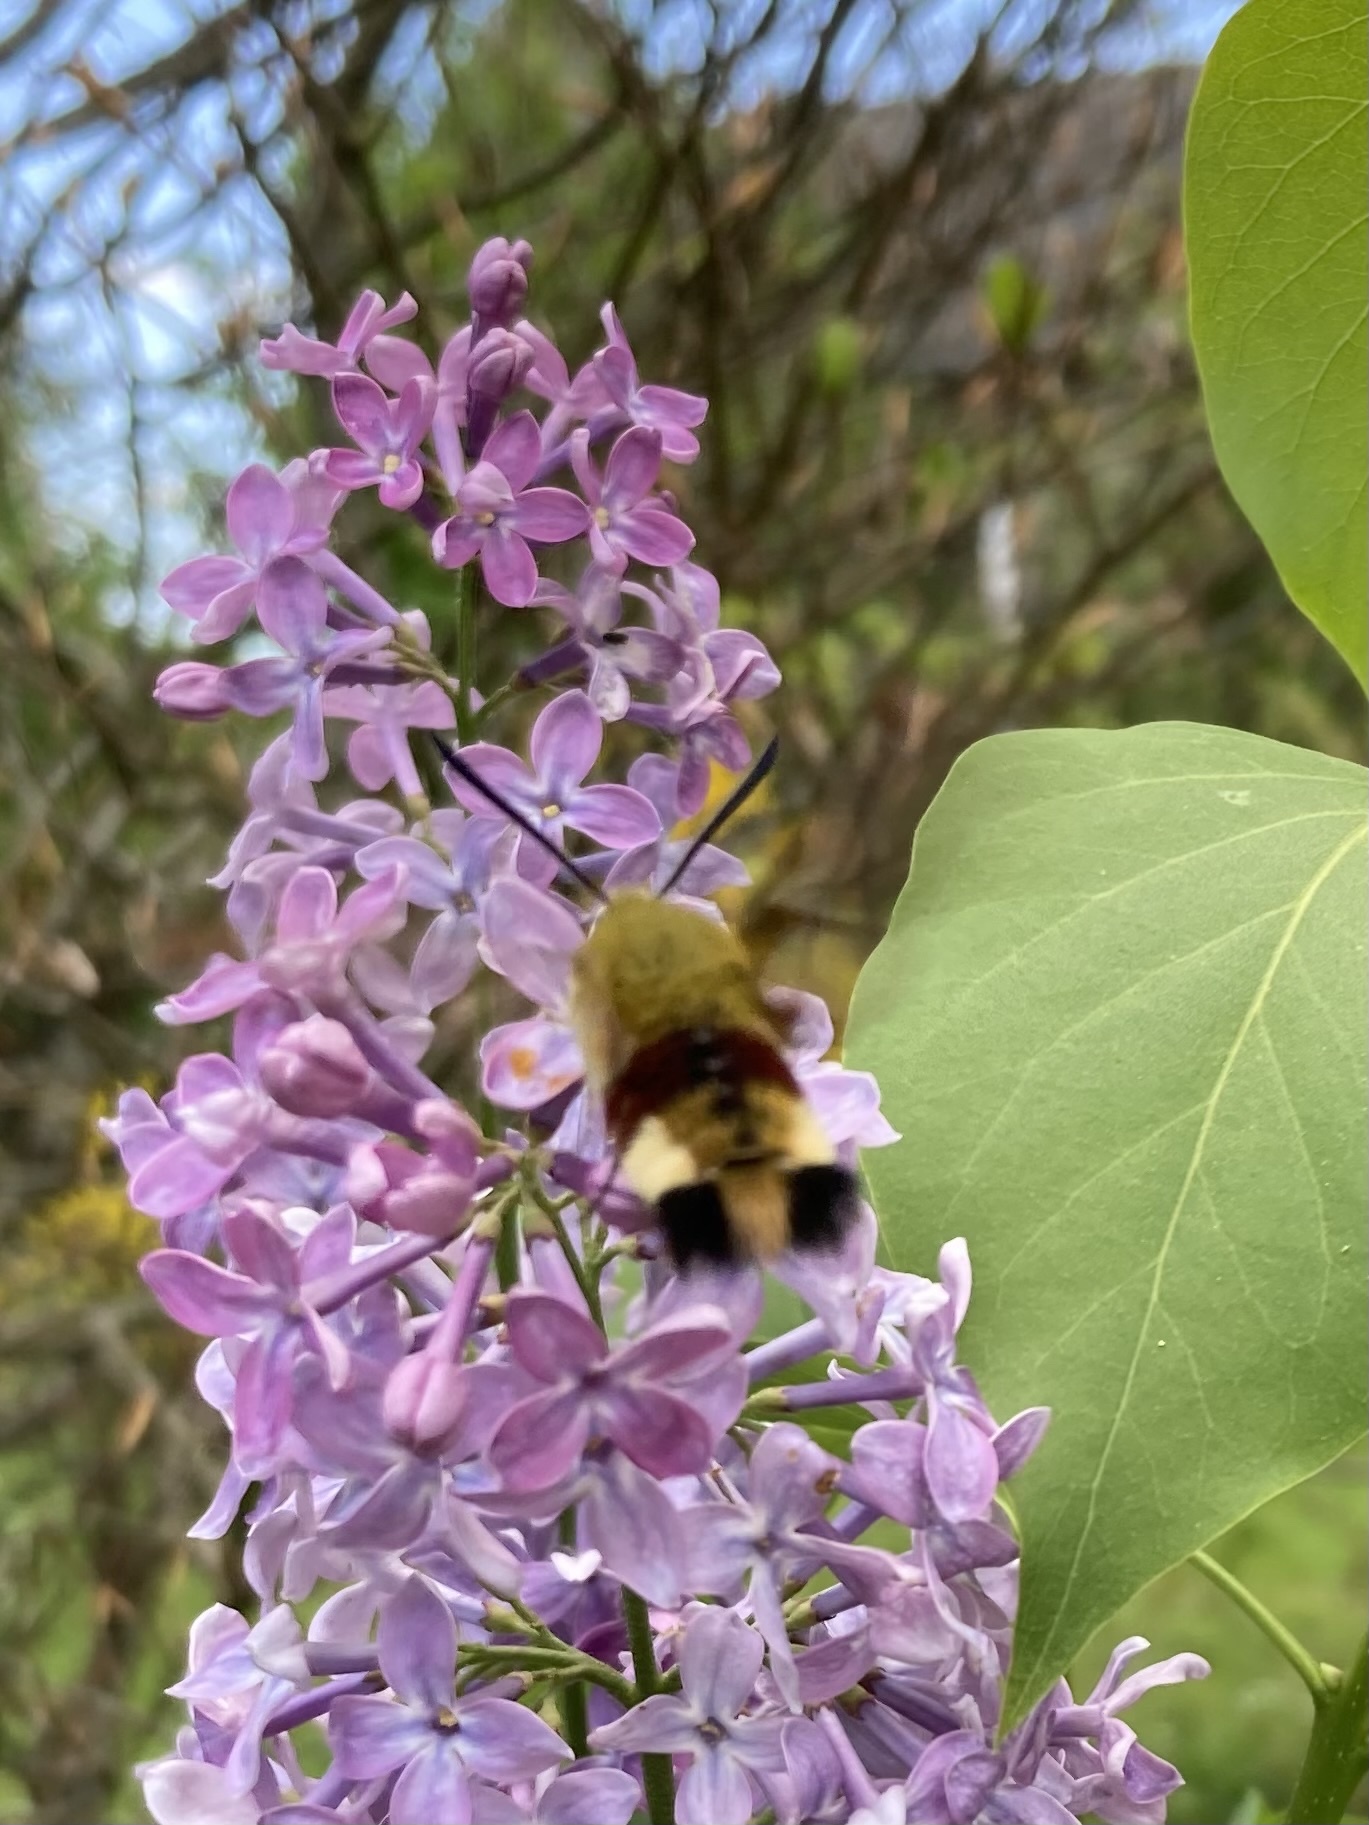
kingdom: Animalia
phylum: Arthropoda
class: Insecta
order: Lepidoptera
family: Sphingidae
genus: Hemaris
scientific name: Hemaris fuciformis
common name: Broad-bordered bee hawk-moth
